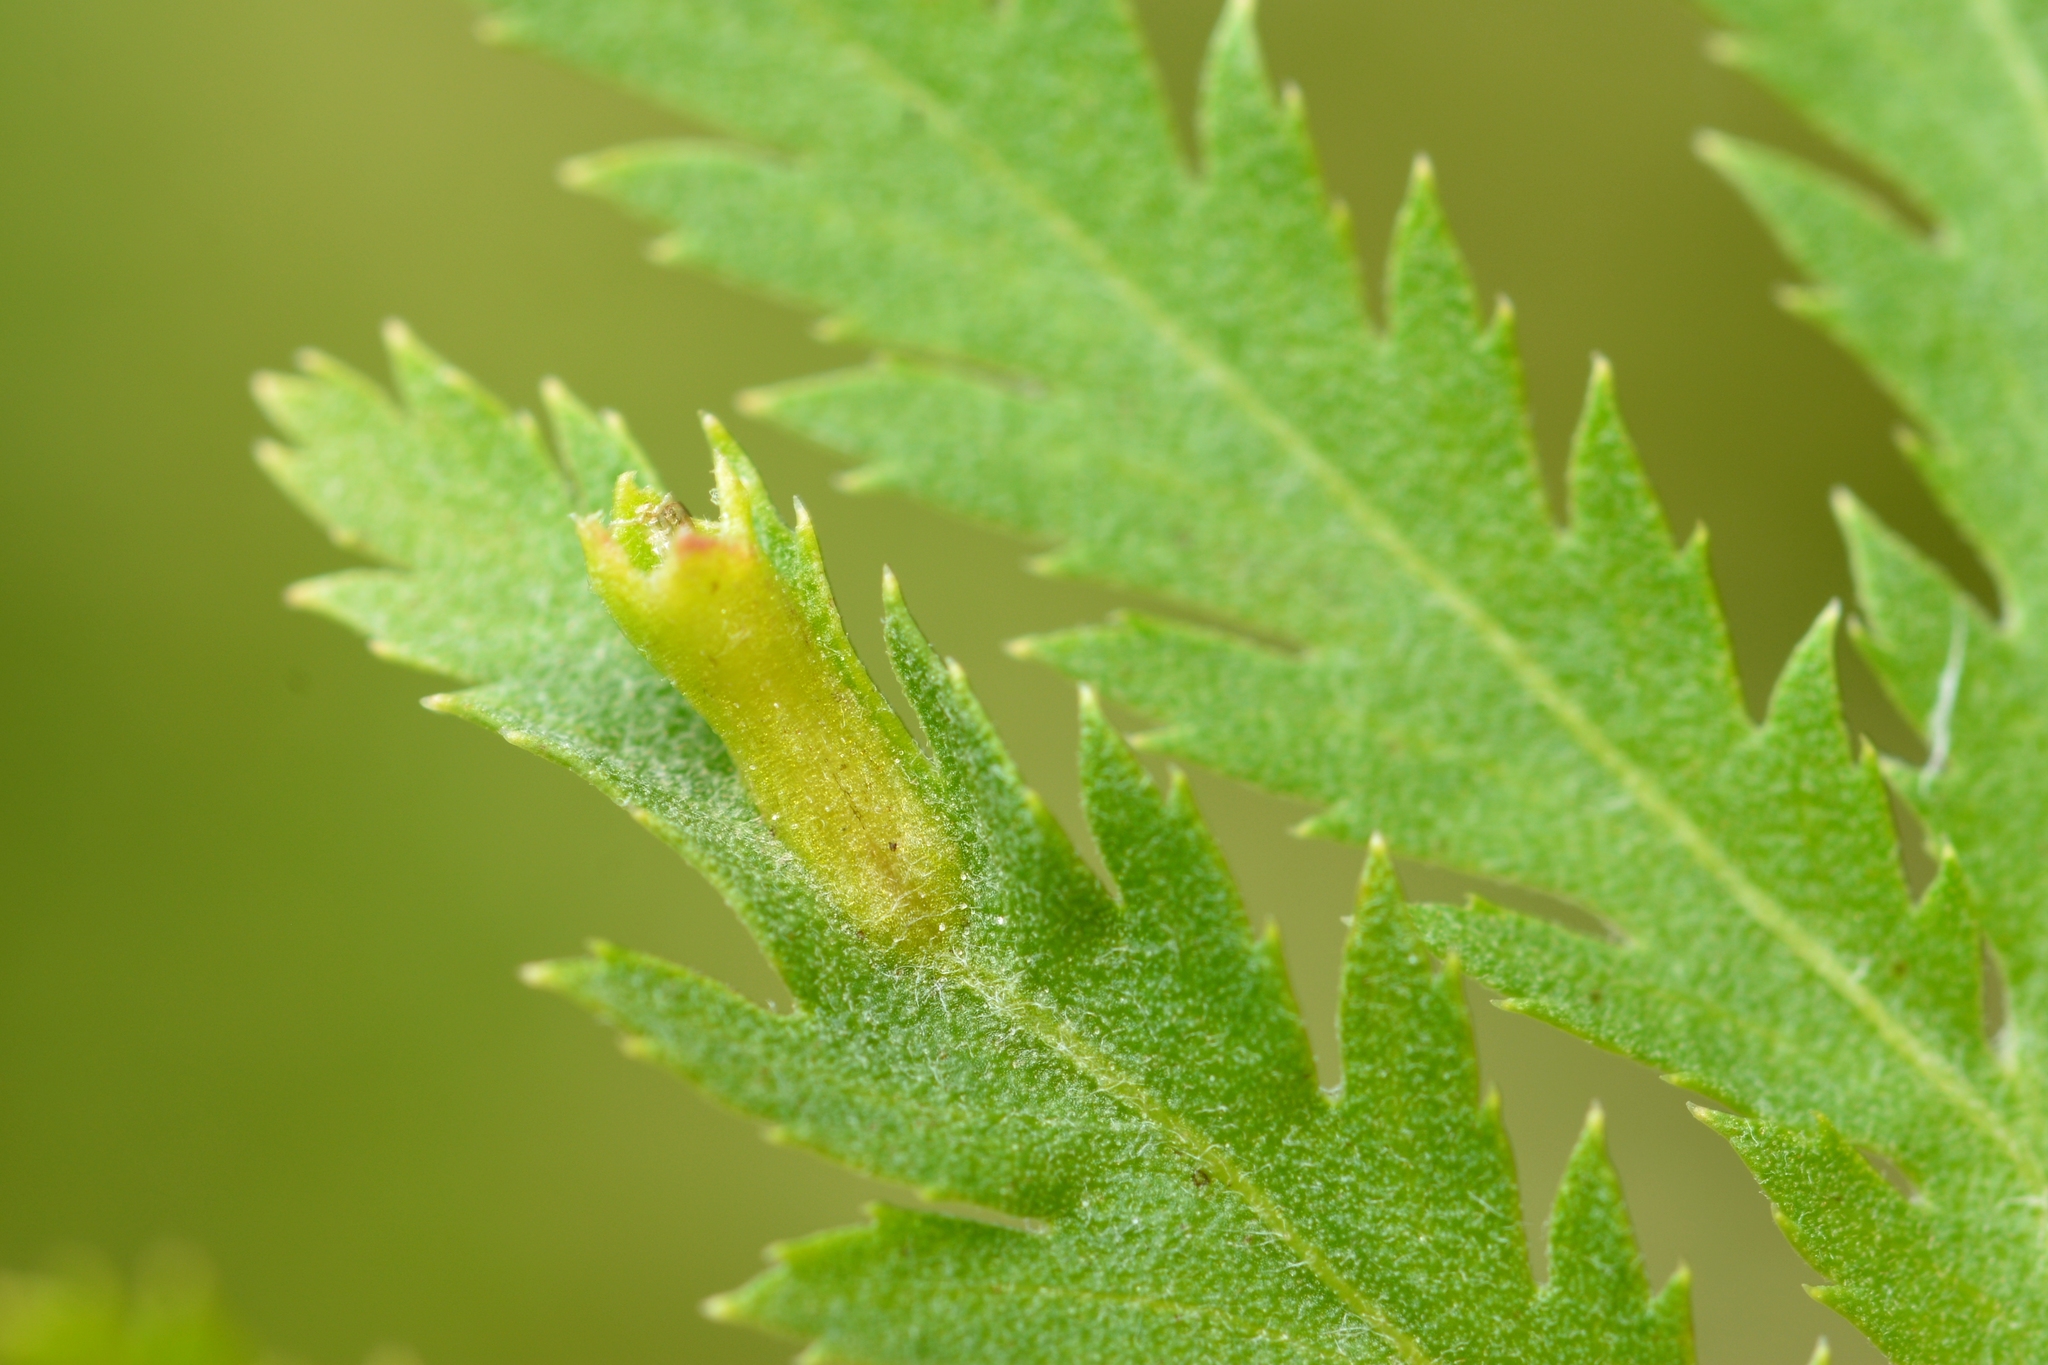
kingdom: Animalia
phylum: Arthropoda
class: Insecta
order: Diptera
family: Cecidomyiidae
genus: Rhopalomyia
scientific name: Rhopalomyia tanaceticolus
